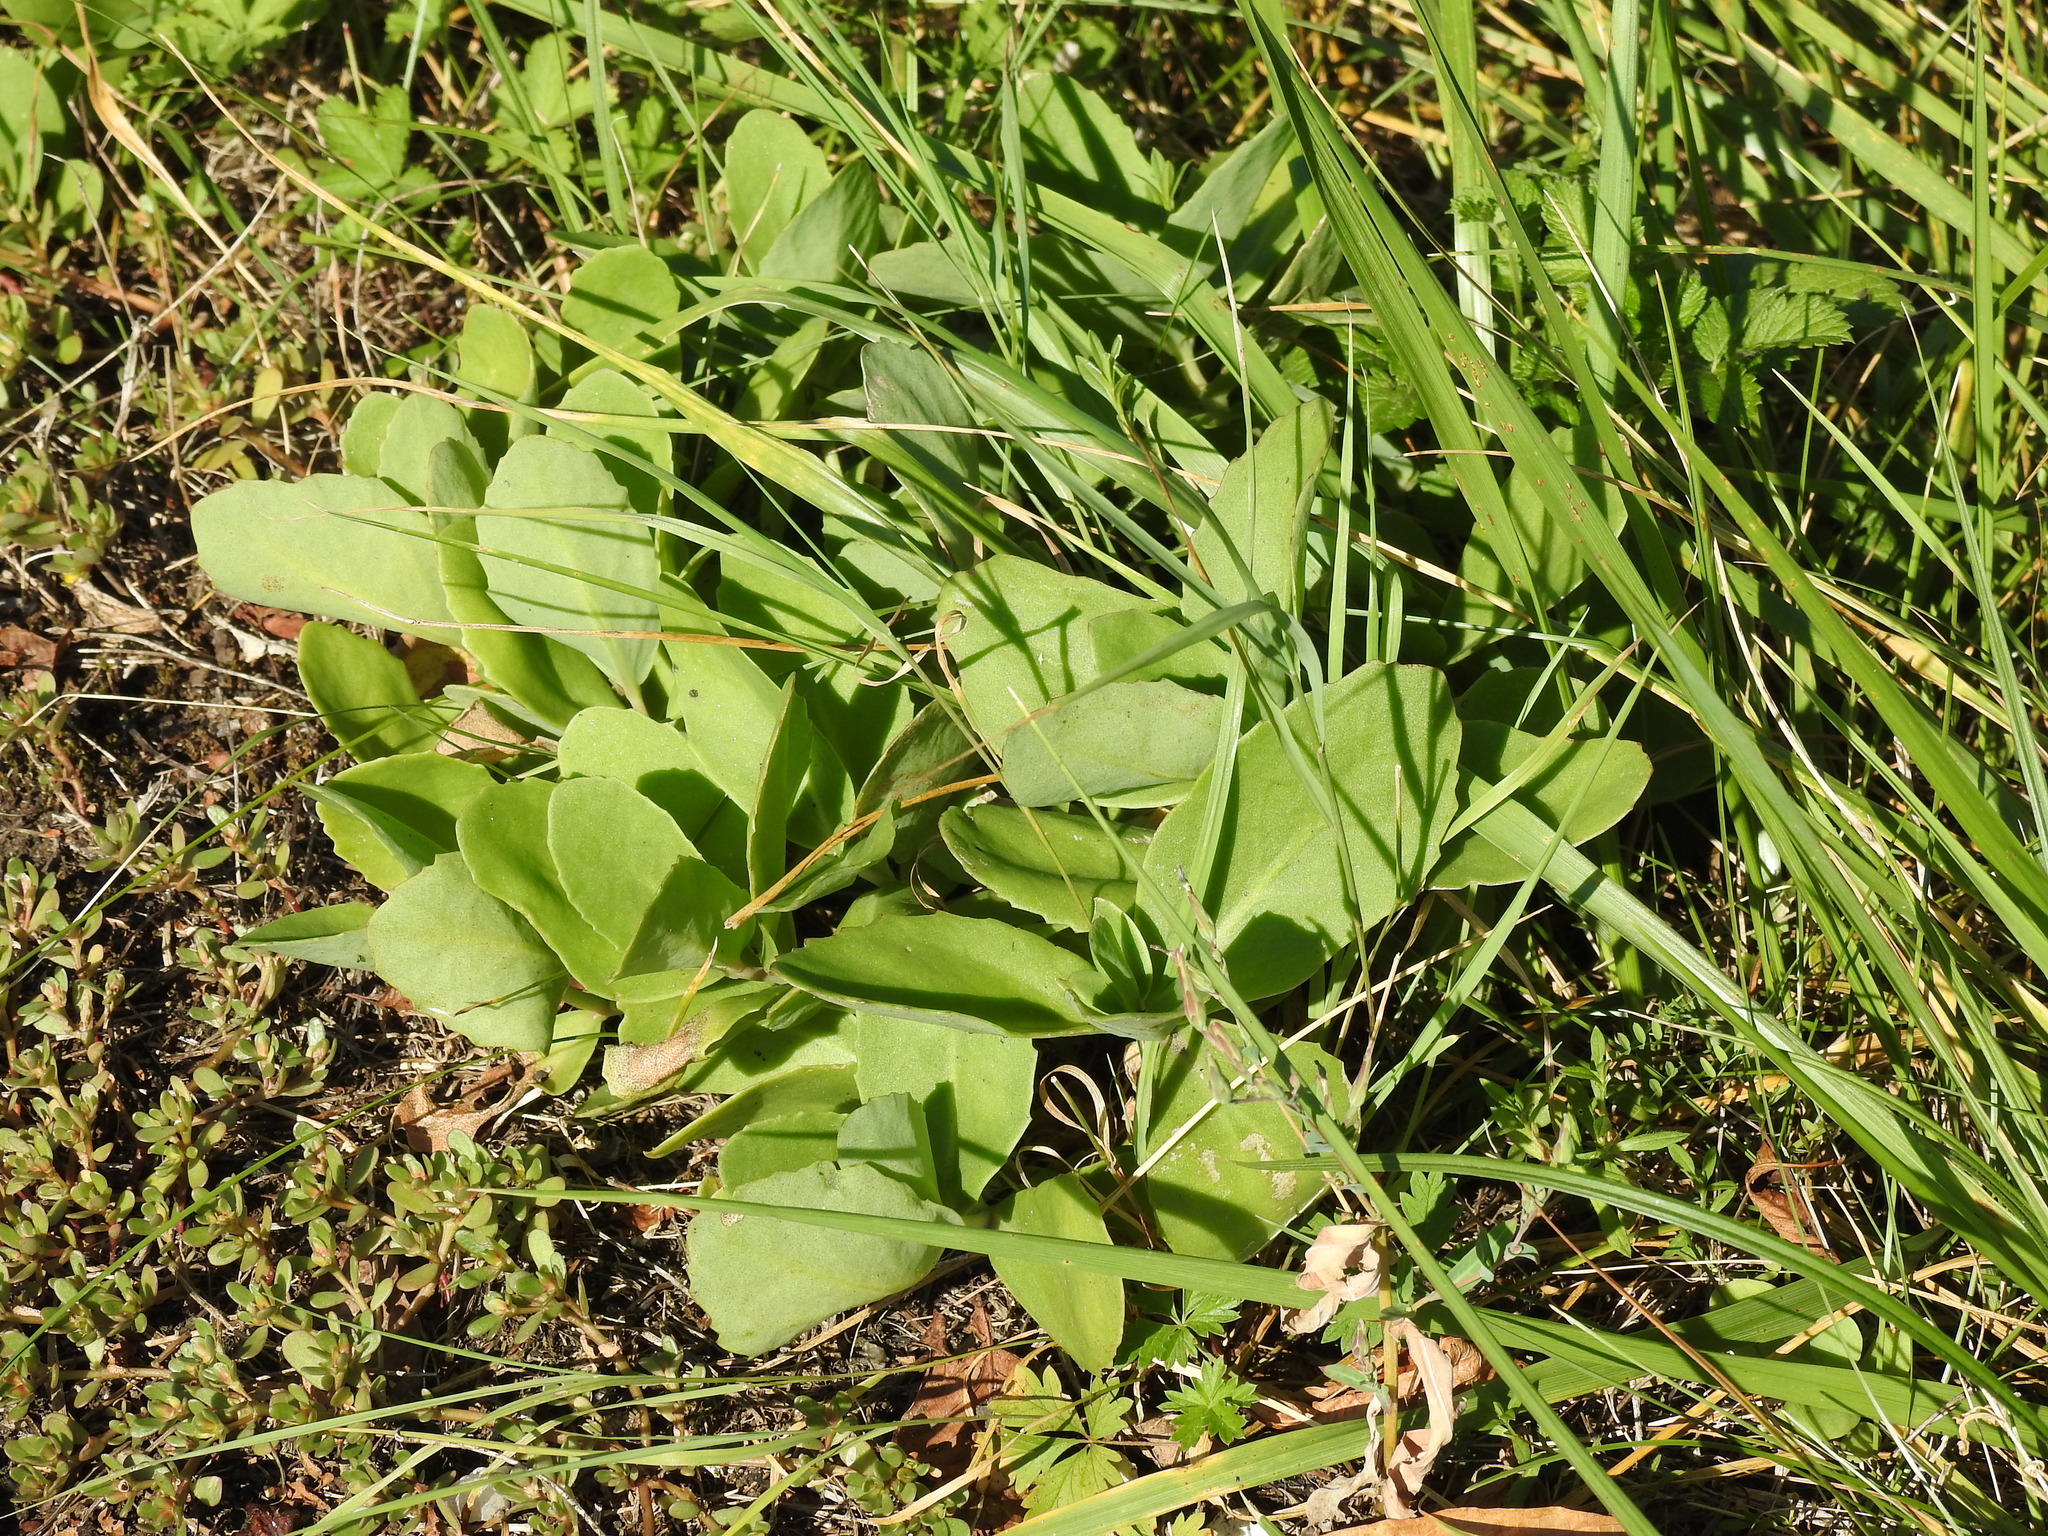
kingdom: Plantae
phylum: Tracheophyta
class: Magnoliopsida
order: Saxifragales
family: Crassulaceae
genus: Hylotelephium
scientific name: Hylotelephium maximum
